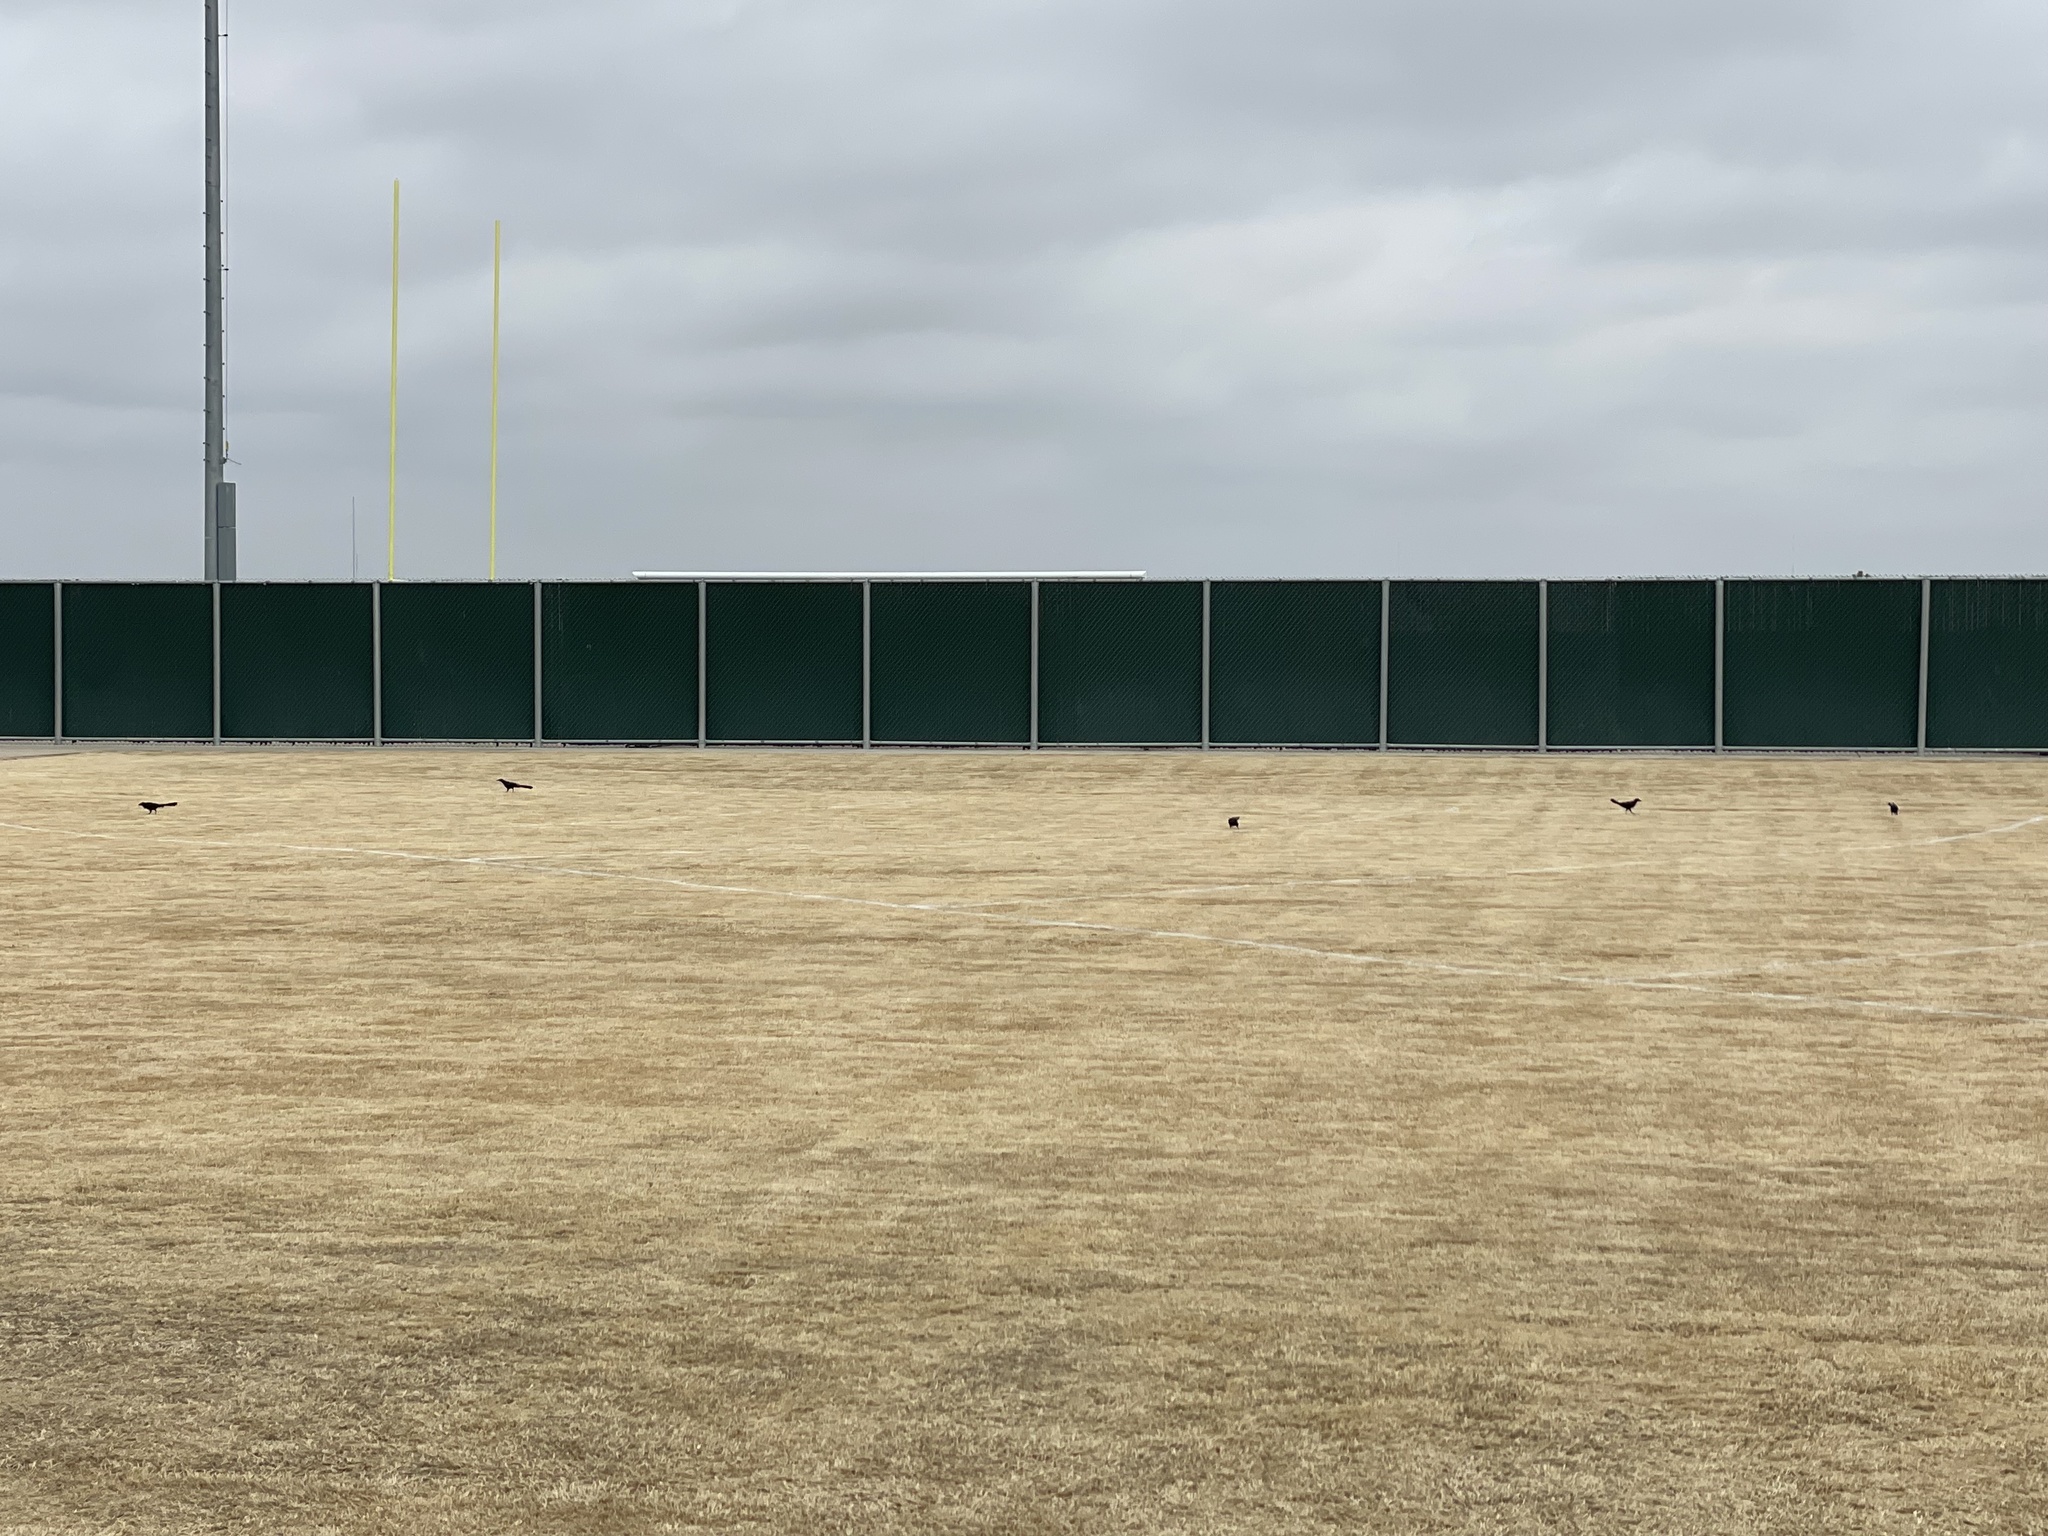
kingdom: Animalia
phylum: Chordata
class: Aves
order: Passeriformes
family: Icteridae
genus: Quiscalus
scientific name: Quiscalus mexicanus
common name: Great-tailed grackle
